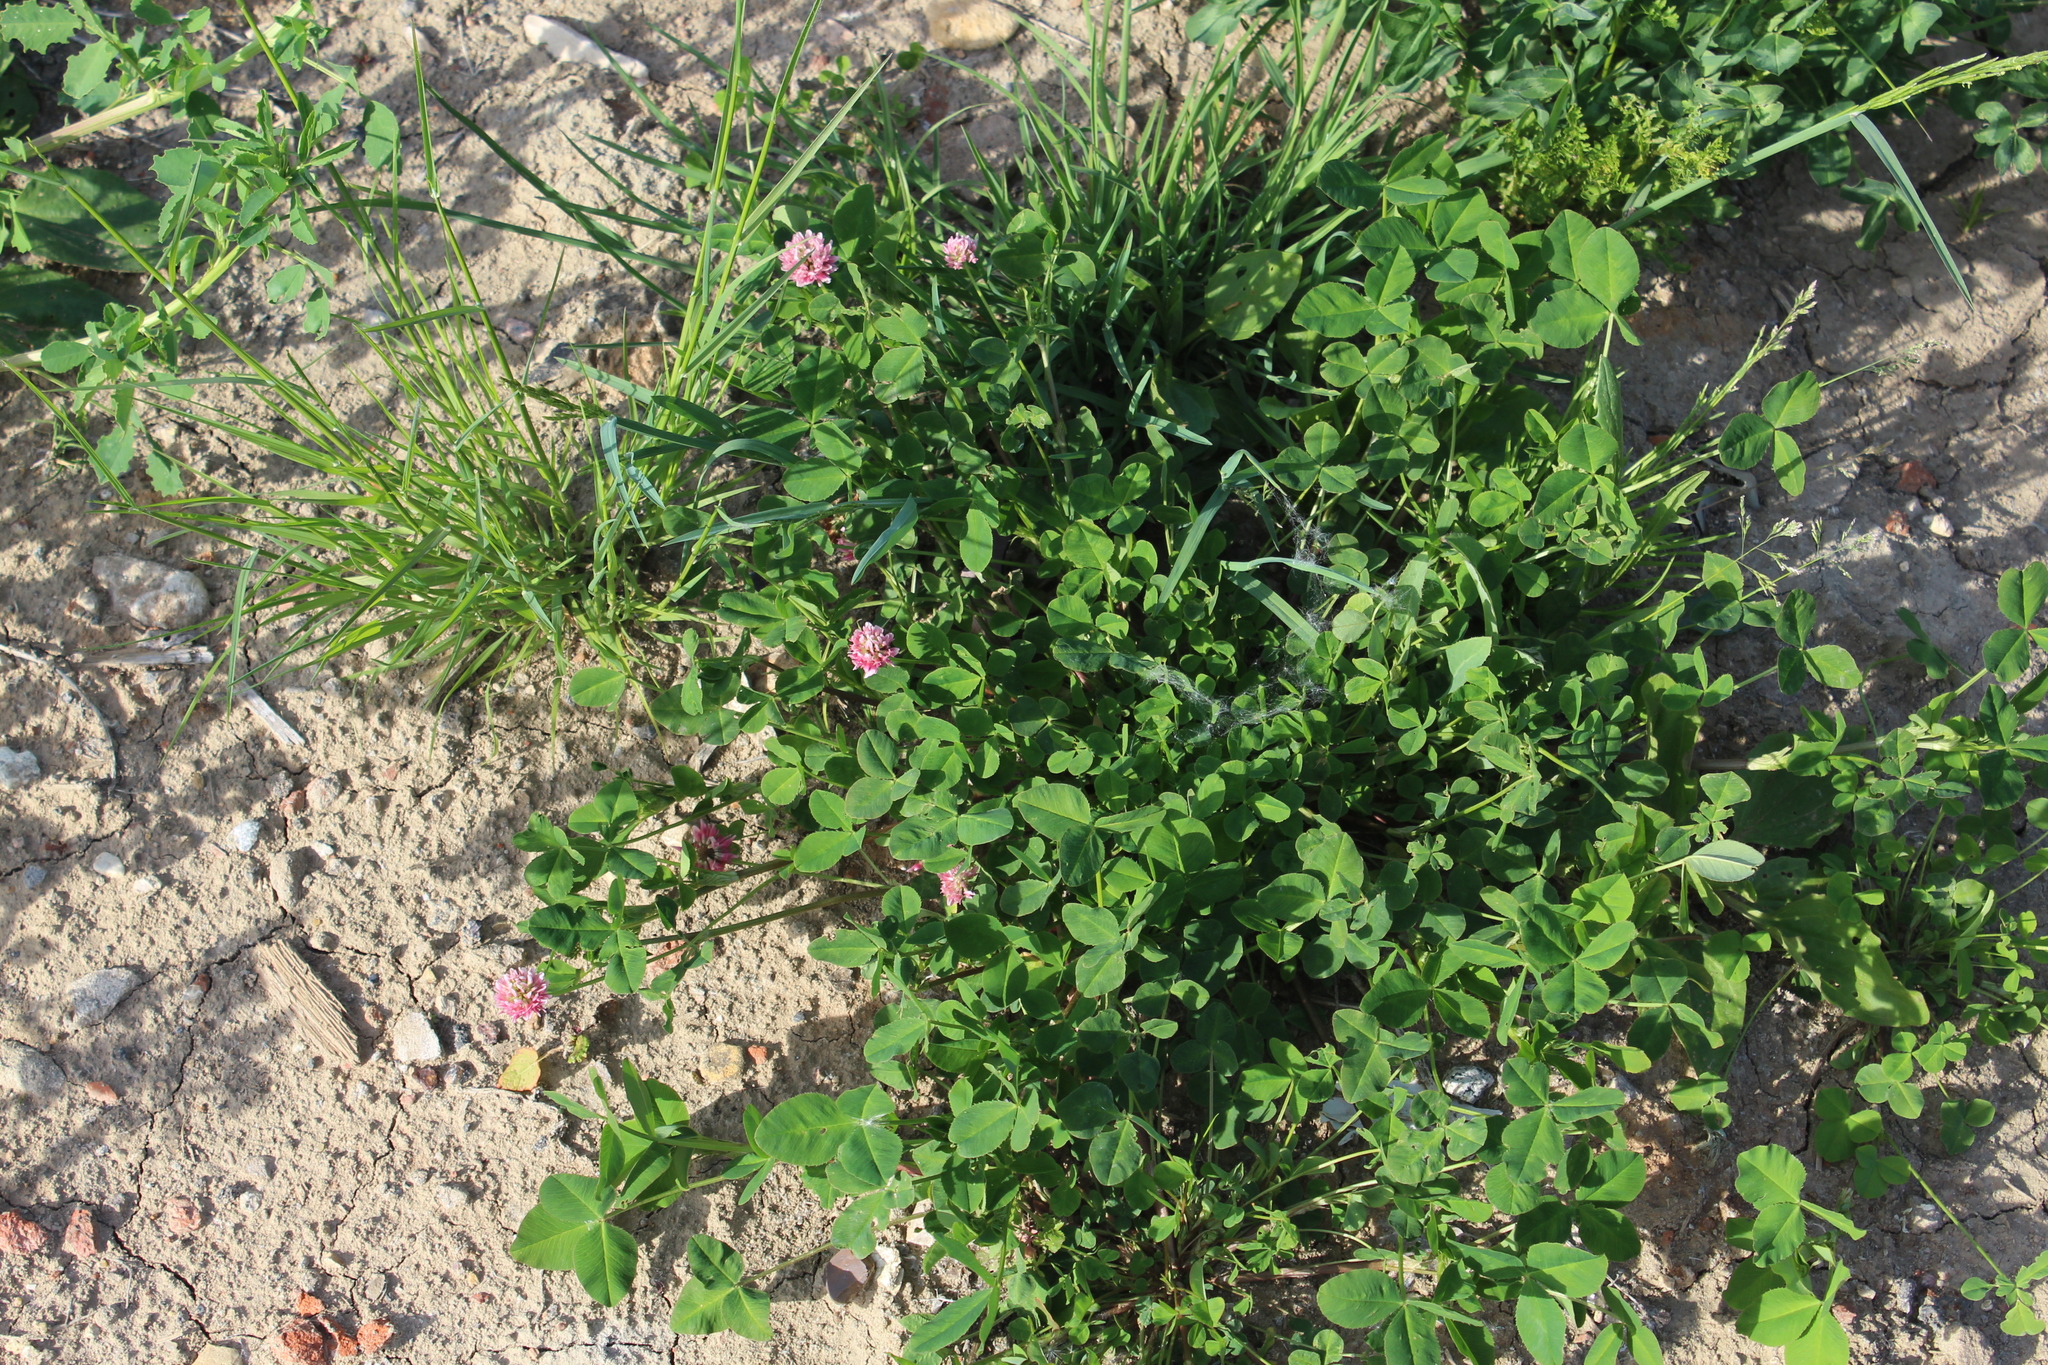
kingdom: Plantae
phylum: Tracheophyta
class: Magnoliopsida
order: Fabales
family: Fabaceae
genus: Trifolium
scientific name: Trifolium hybridum
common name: Alsike clover
